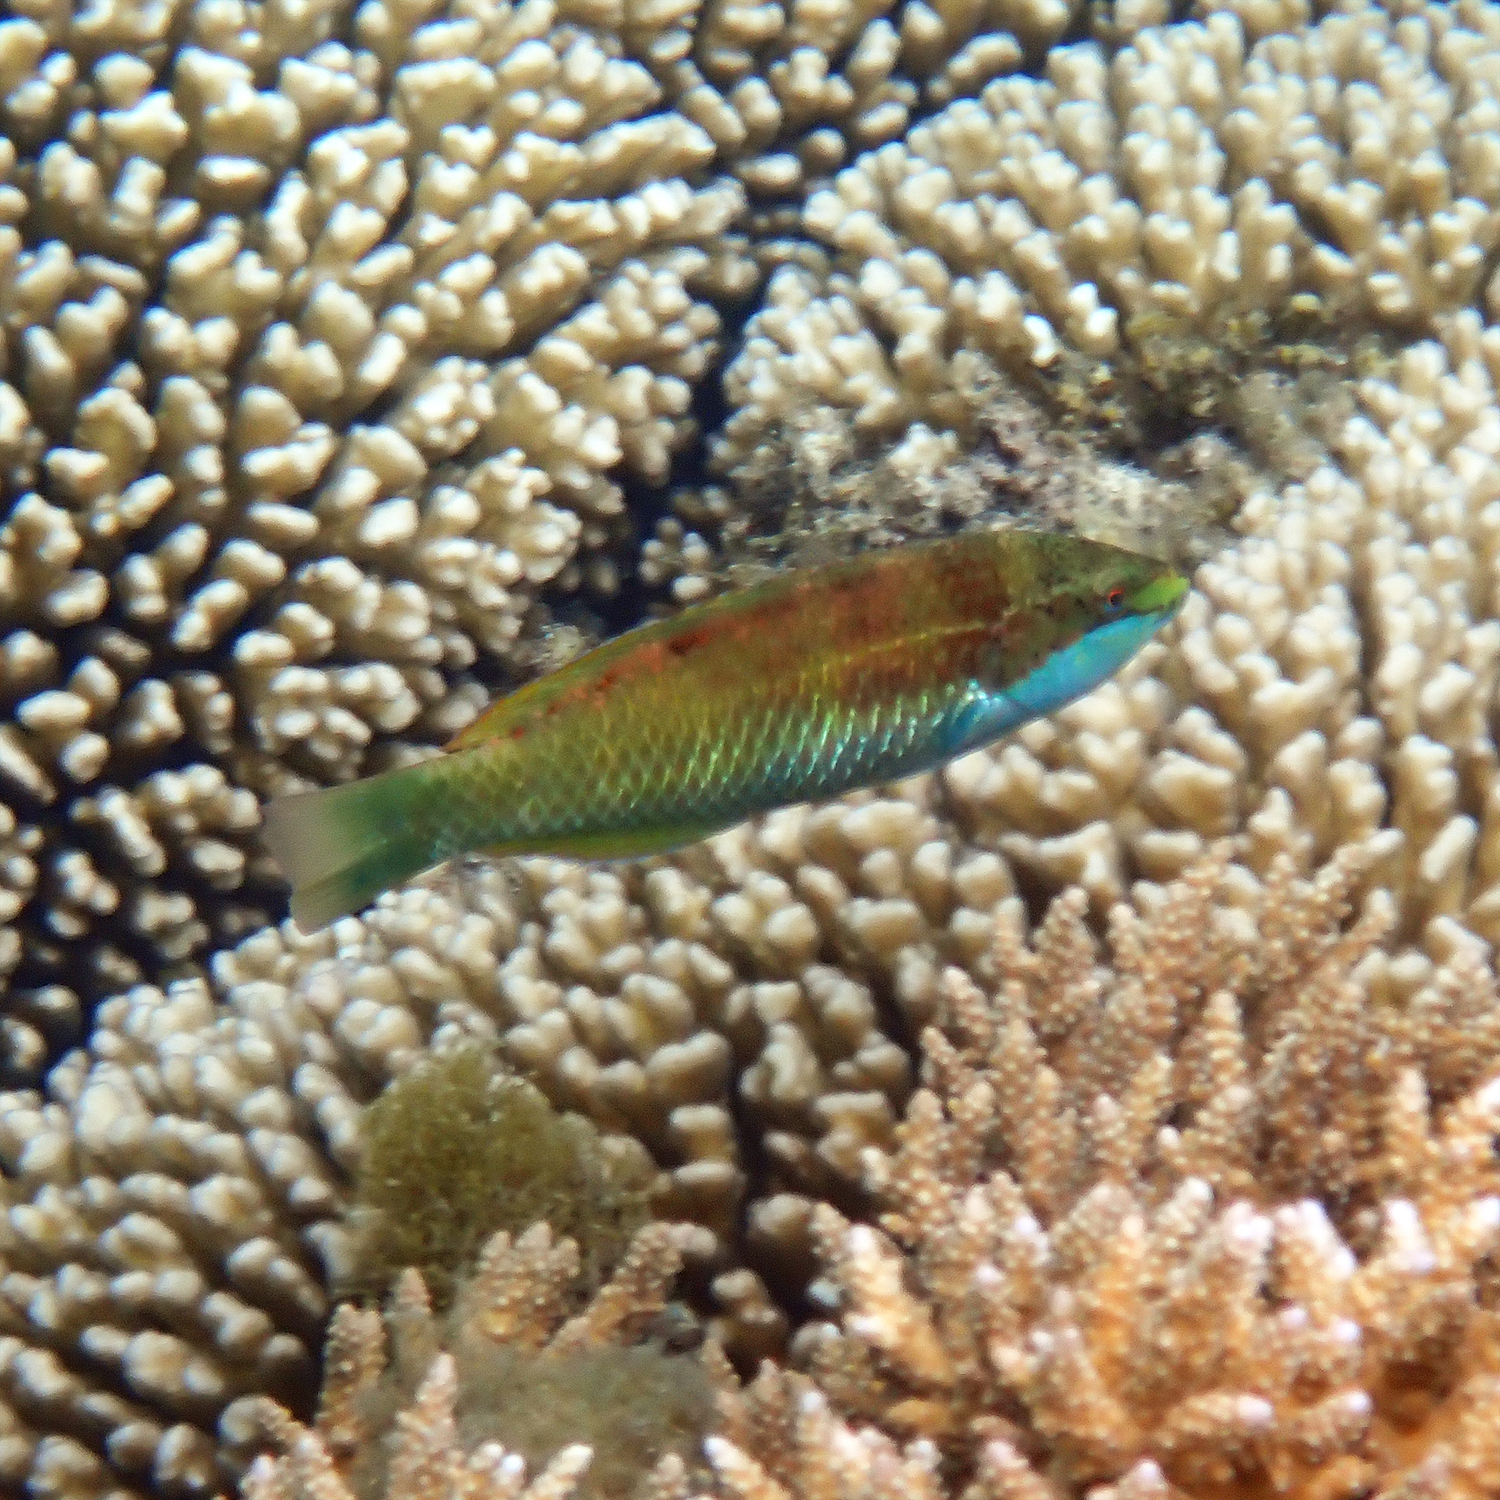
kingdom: Animalia
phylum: Chordata
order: Perciformes
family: Labridae
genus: Pseudolabrus
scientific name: Pseudolabrus luculentus
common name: Luculentus wrasse
